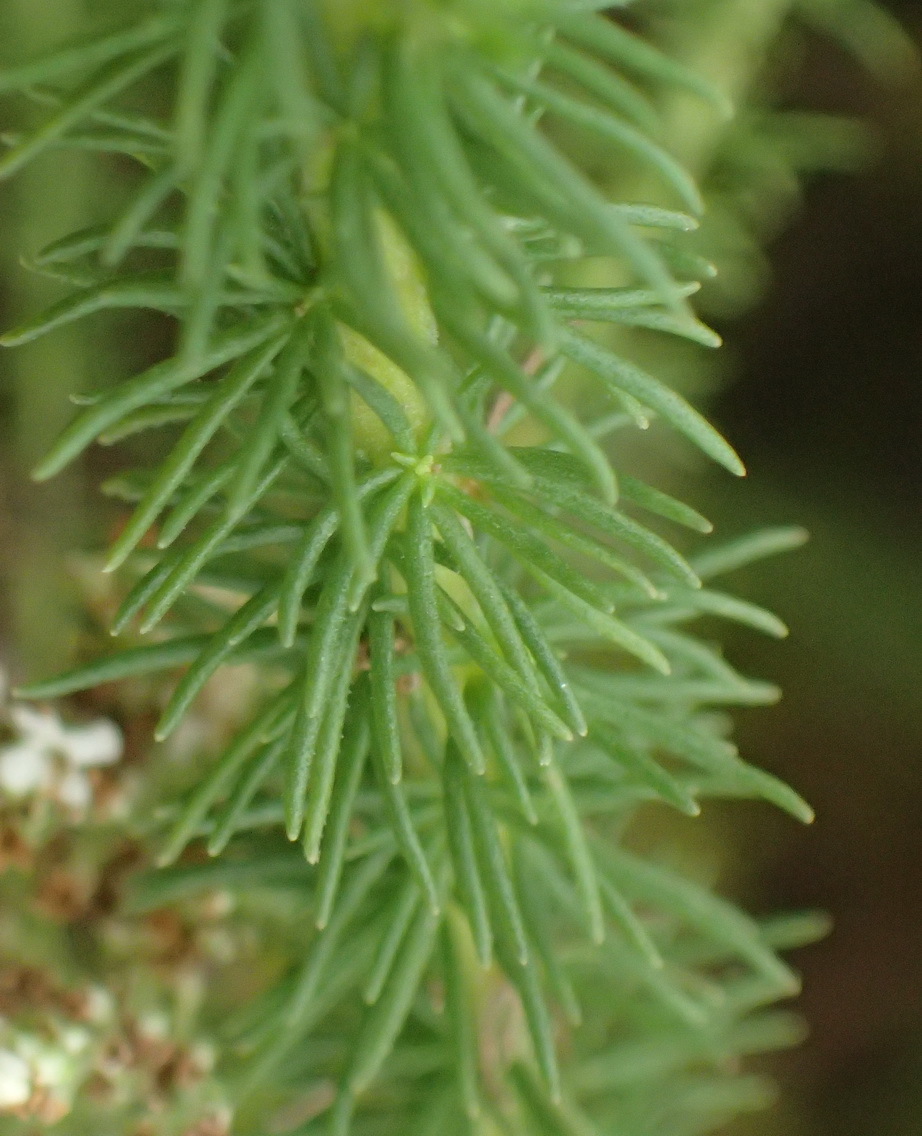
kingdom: Plantae
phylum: Tracheophyta
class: Magnoliopsida
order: Lamiales
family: Scrophulariaceae
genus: Selago
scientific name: Selago corymbosa
